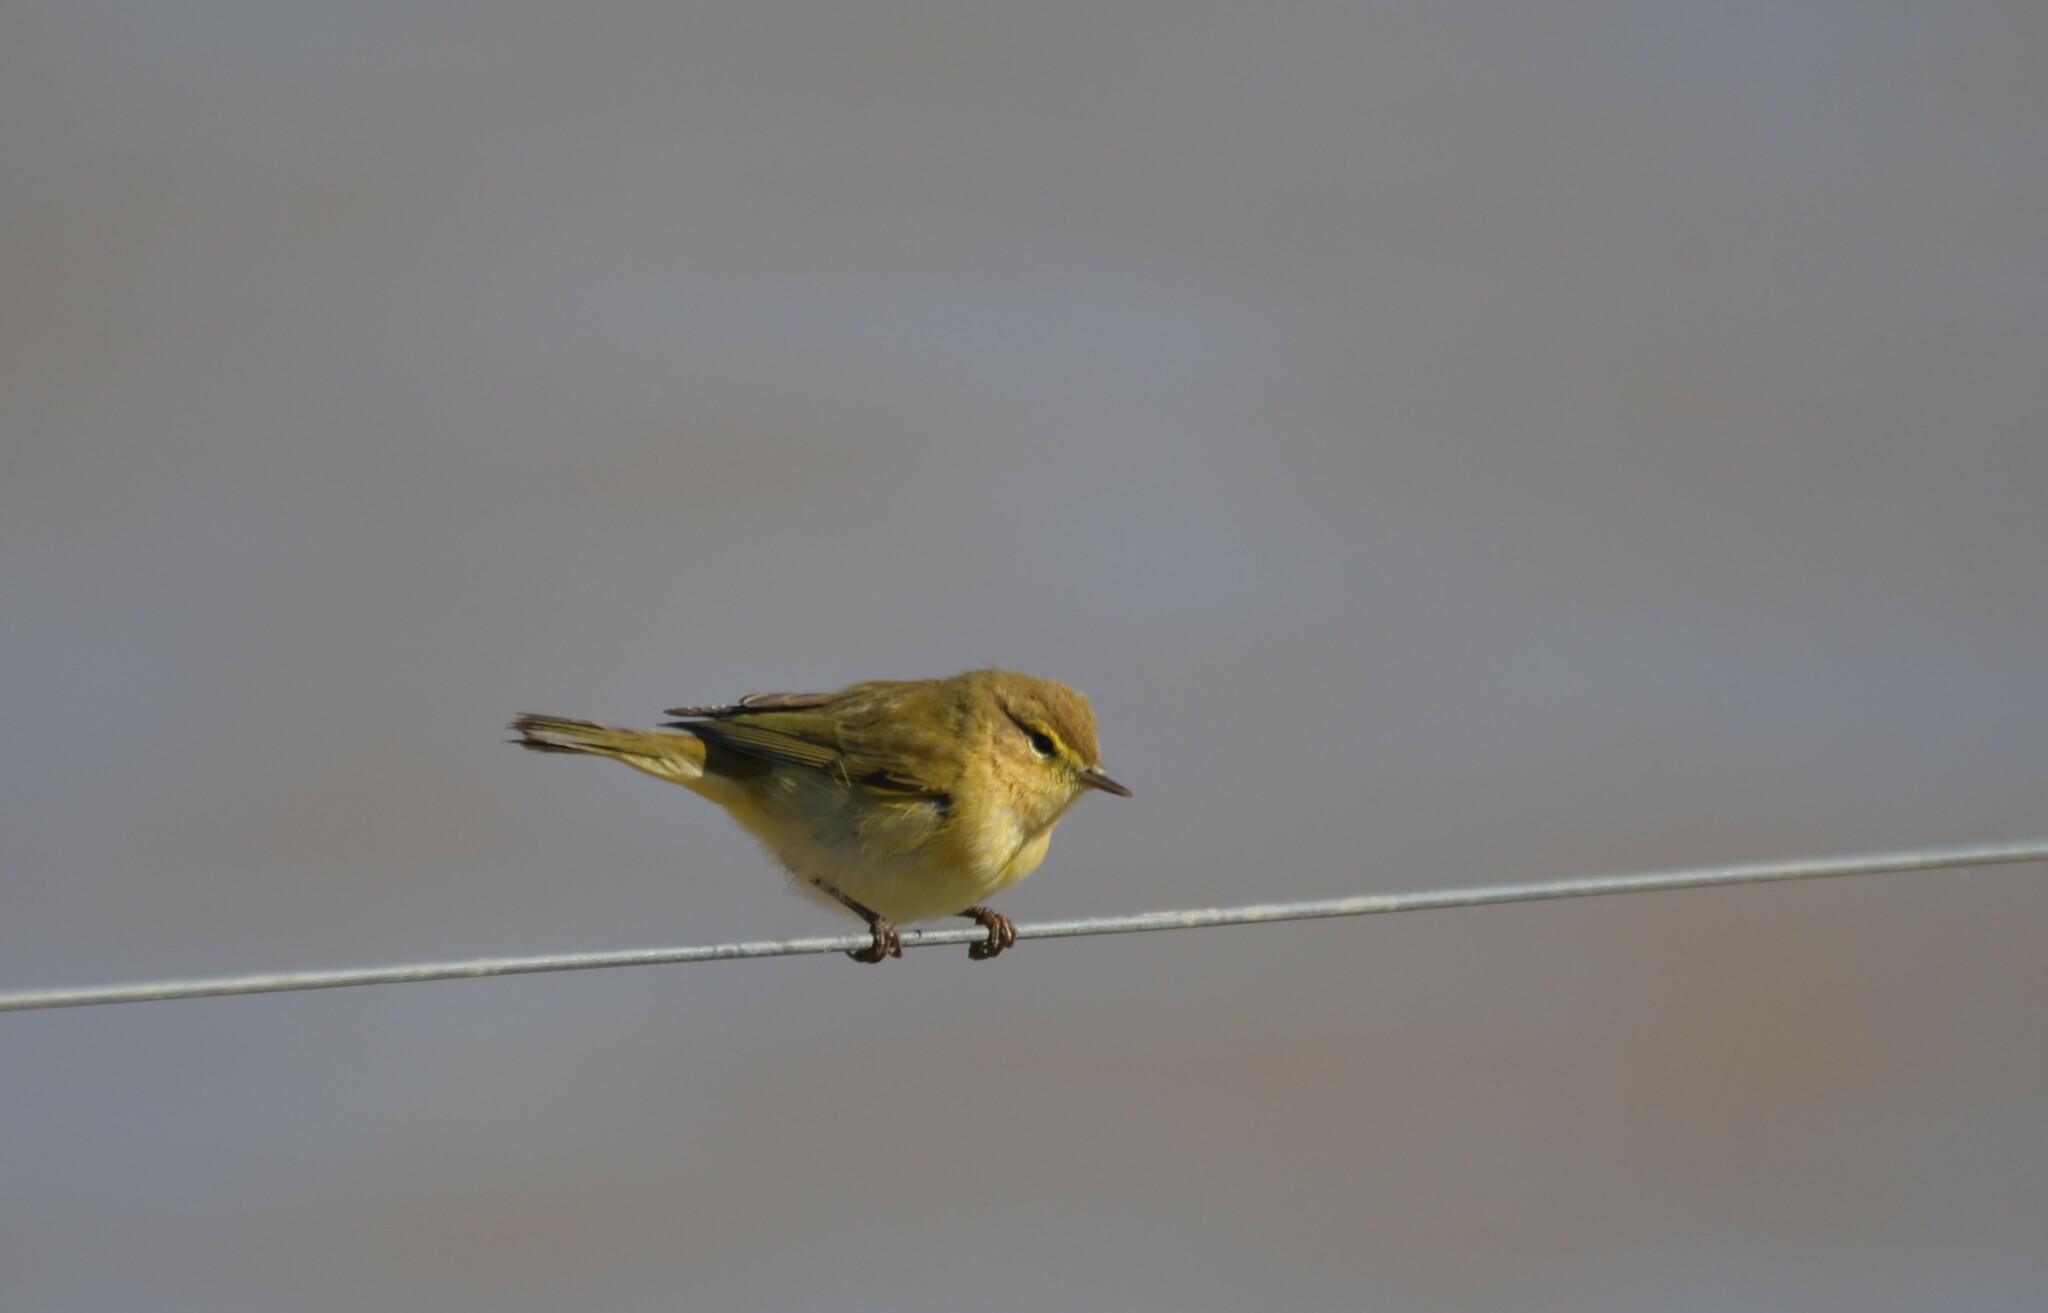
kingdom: Animalia
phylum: Chordata
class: Aves
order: Passeriformes
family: Phylloscopidae
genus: Phylloscopus
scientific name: Phylloscopus collybita
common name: Common chiffchaff
